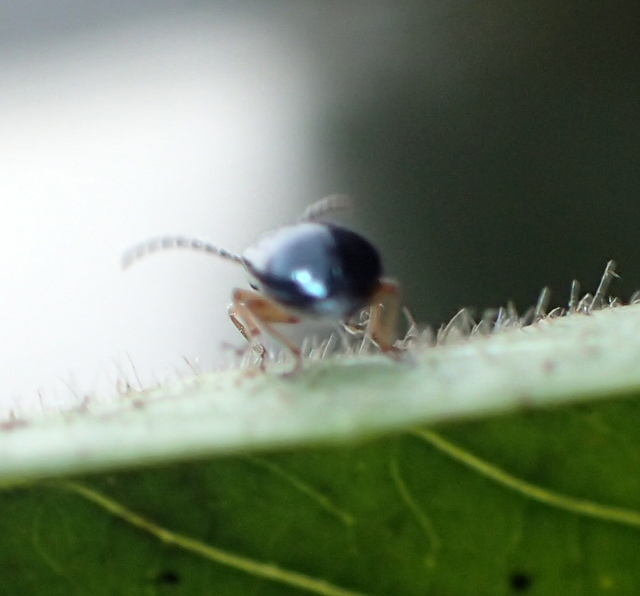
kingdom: Animalia
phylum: Arthropoda
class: Insecta
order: Coleoptera
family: Chrysomelidae
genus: Lysathia
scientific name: Lysathia ludoviciana
